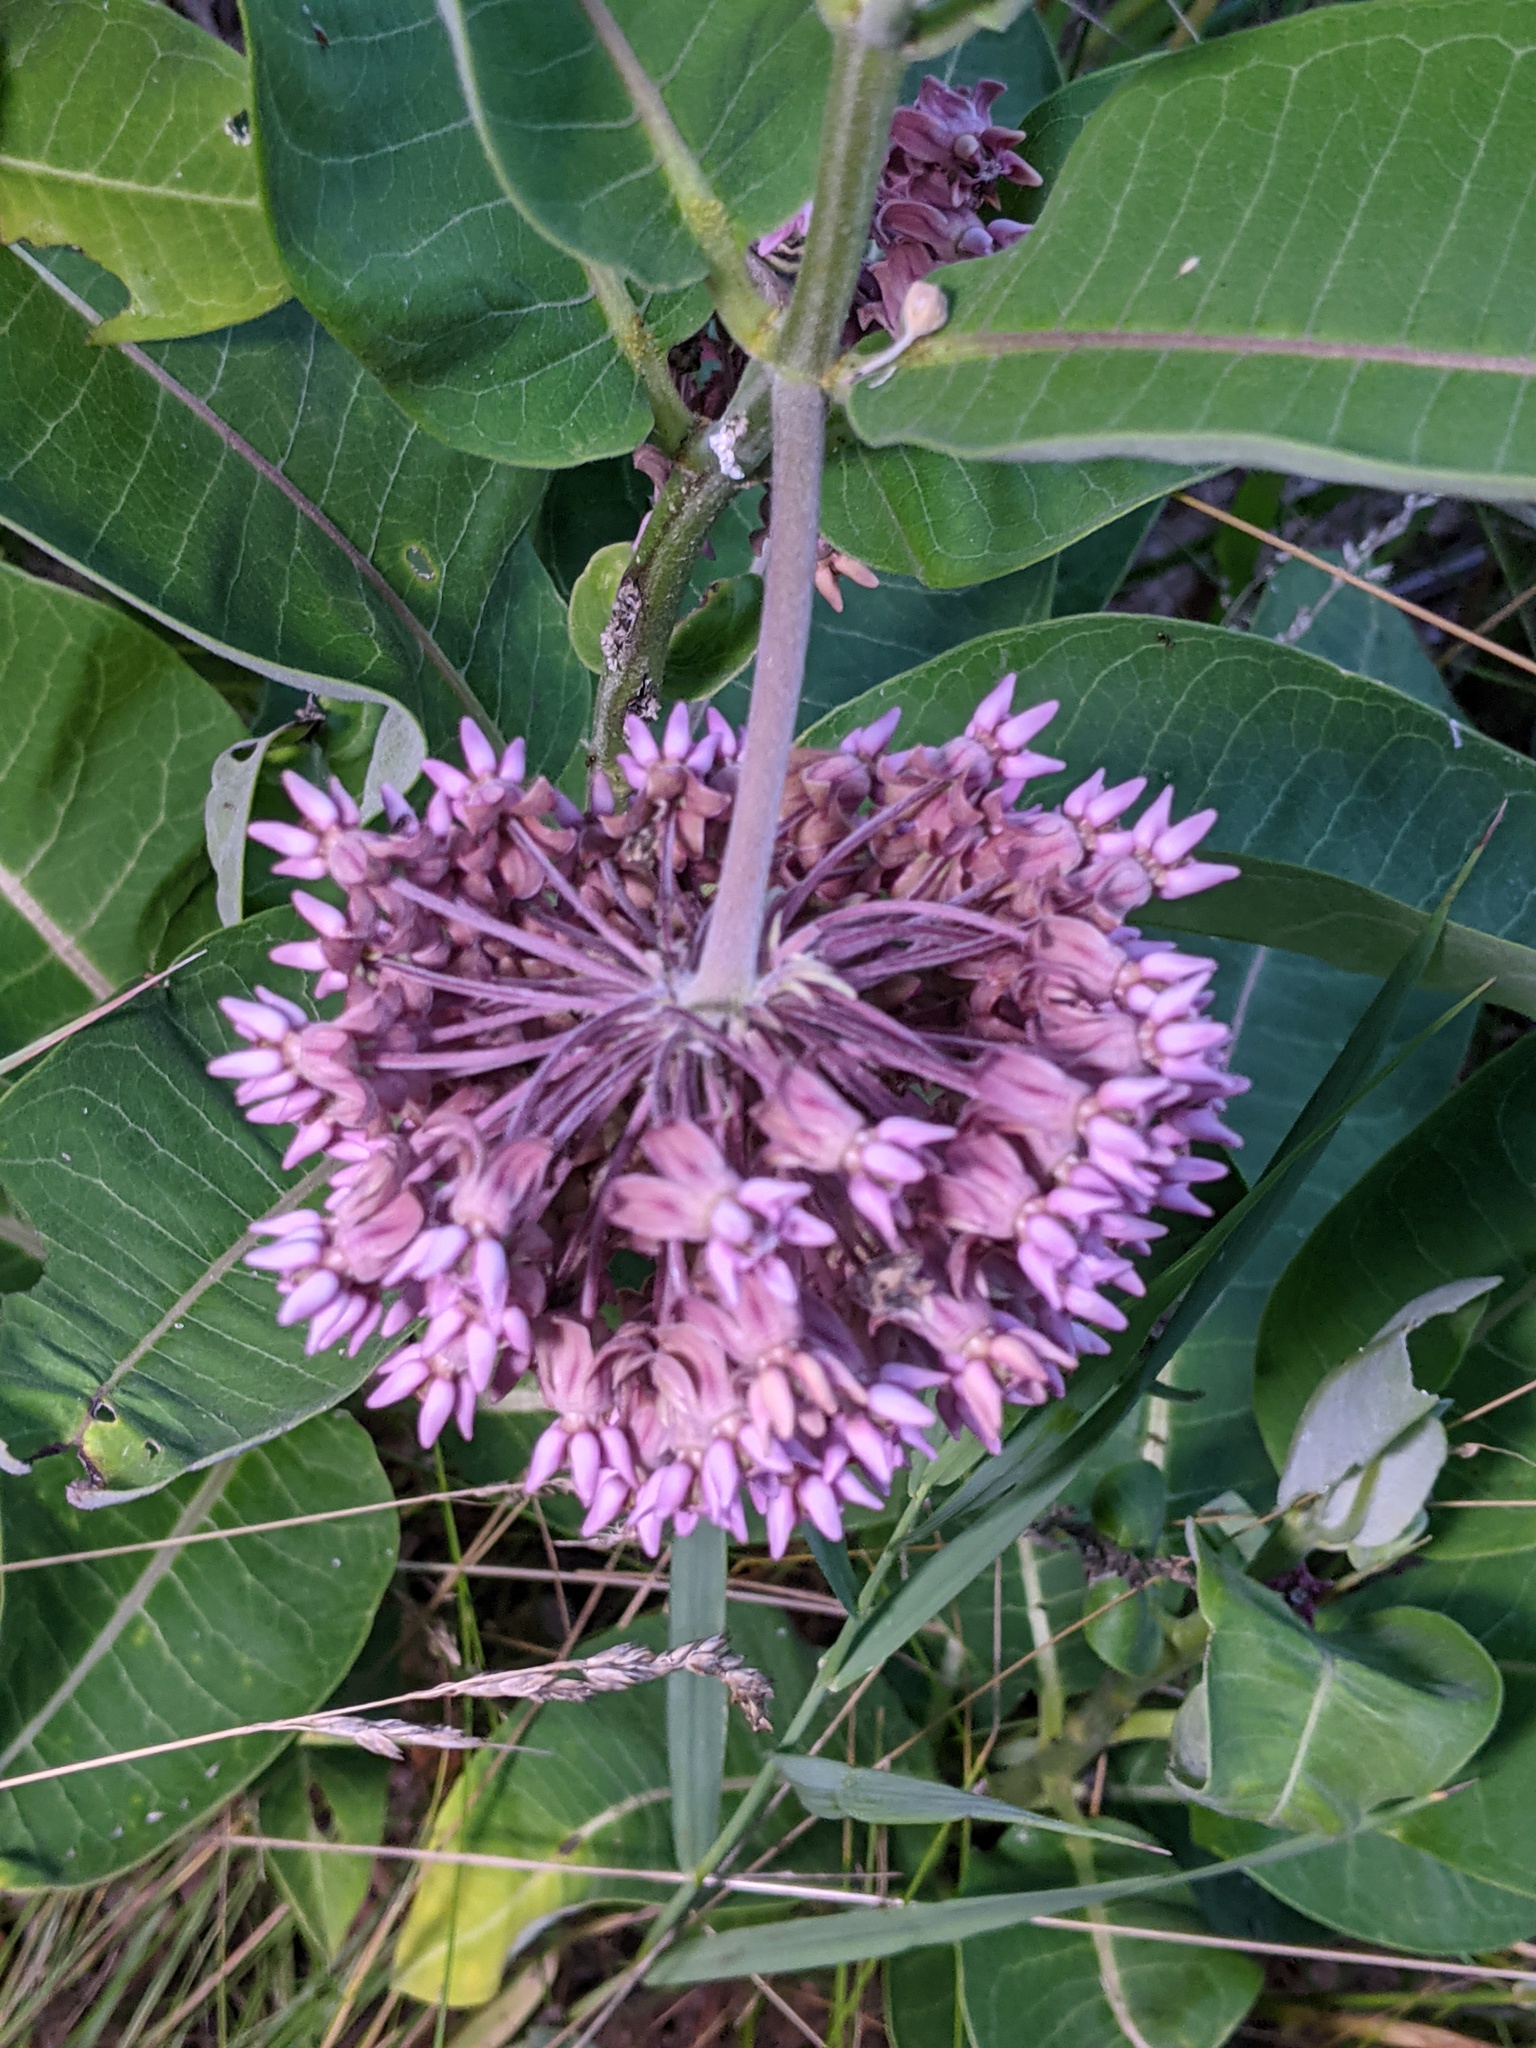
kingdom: Plantae
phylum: Tracheophyta
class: Magnoliopsida
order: Gentianales
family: Apocynaceae
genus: Asclepias
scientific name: Asclepias syriaca
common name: Common milkweed
